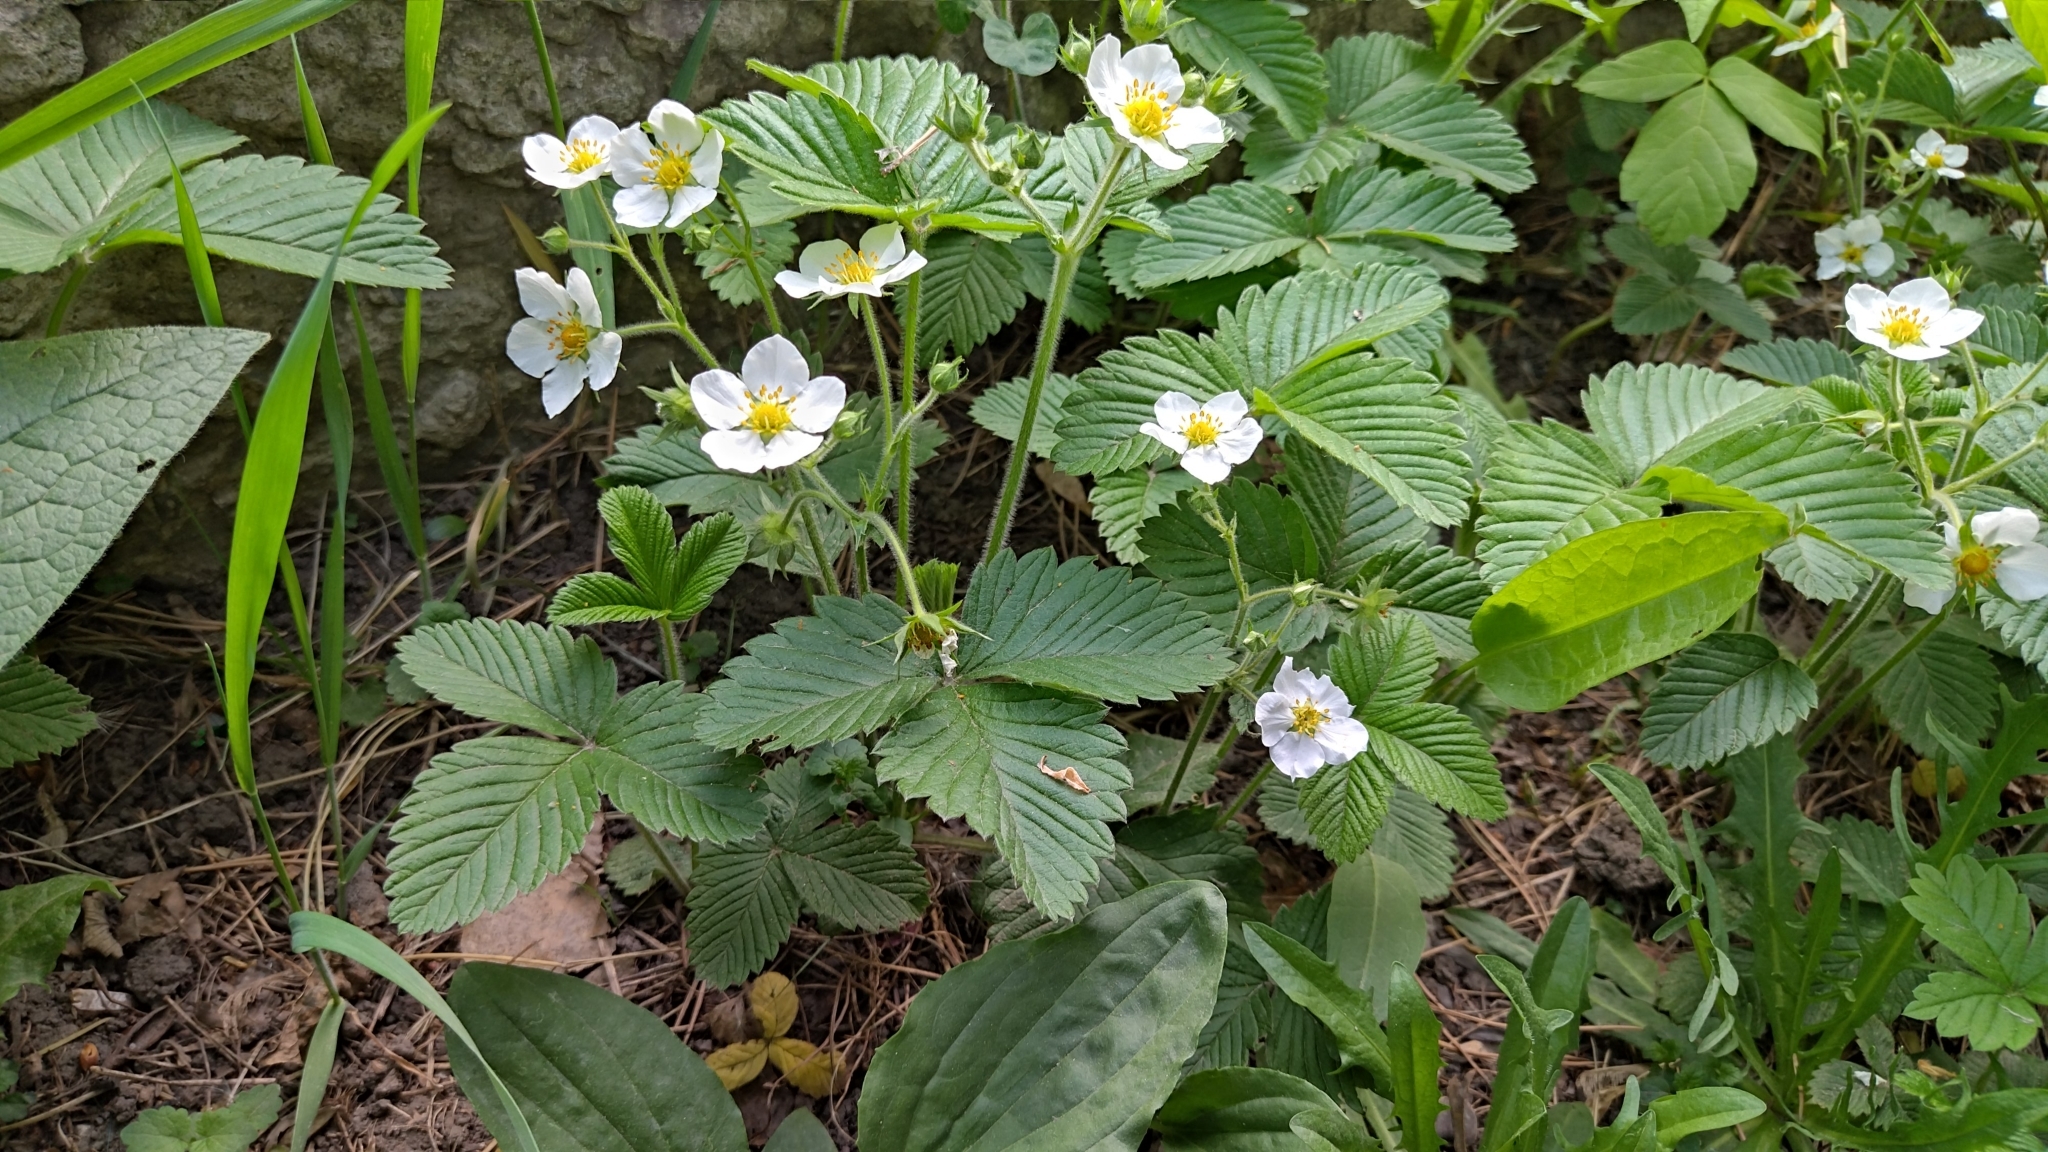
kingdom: Plantae
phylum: Tracheophyta
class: Magnoliopsida
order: Rosales
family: Rosaceae
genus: Fragaria
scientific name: Fragaria moschata
